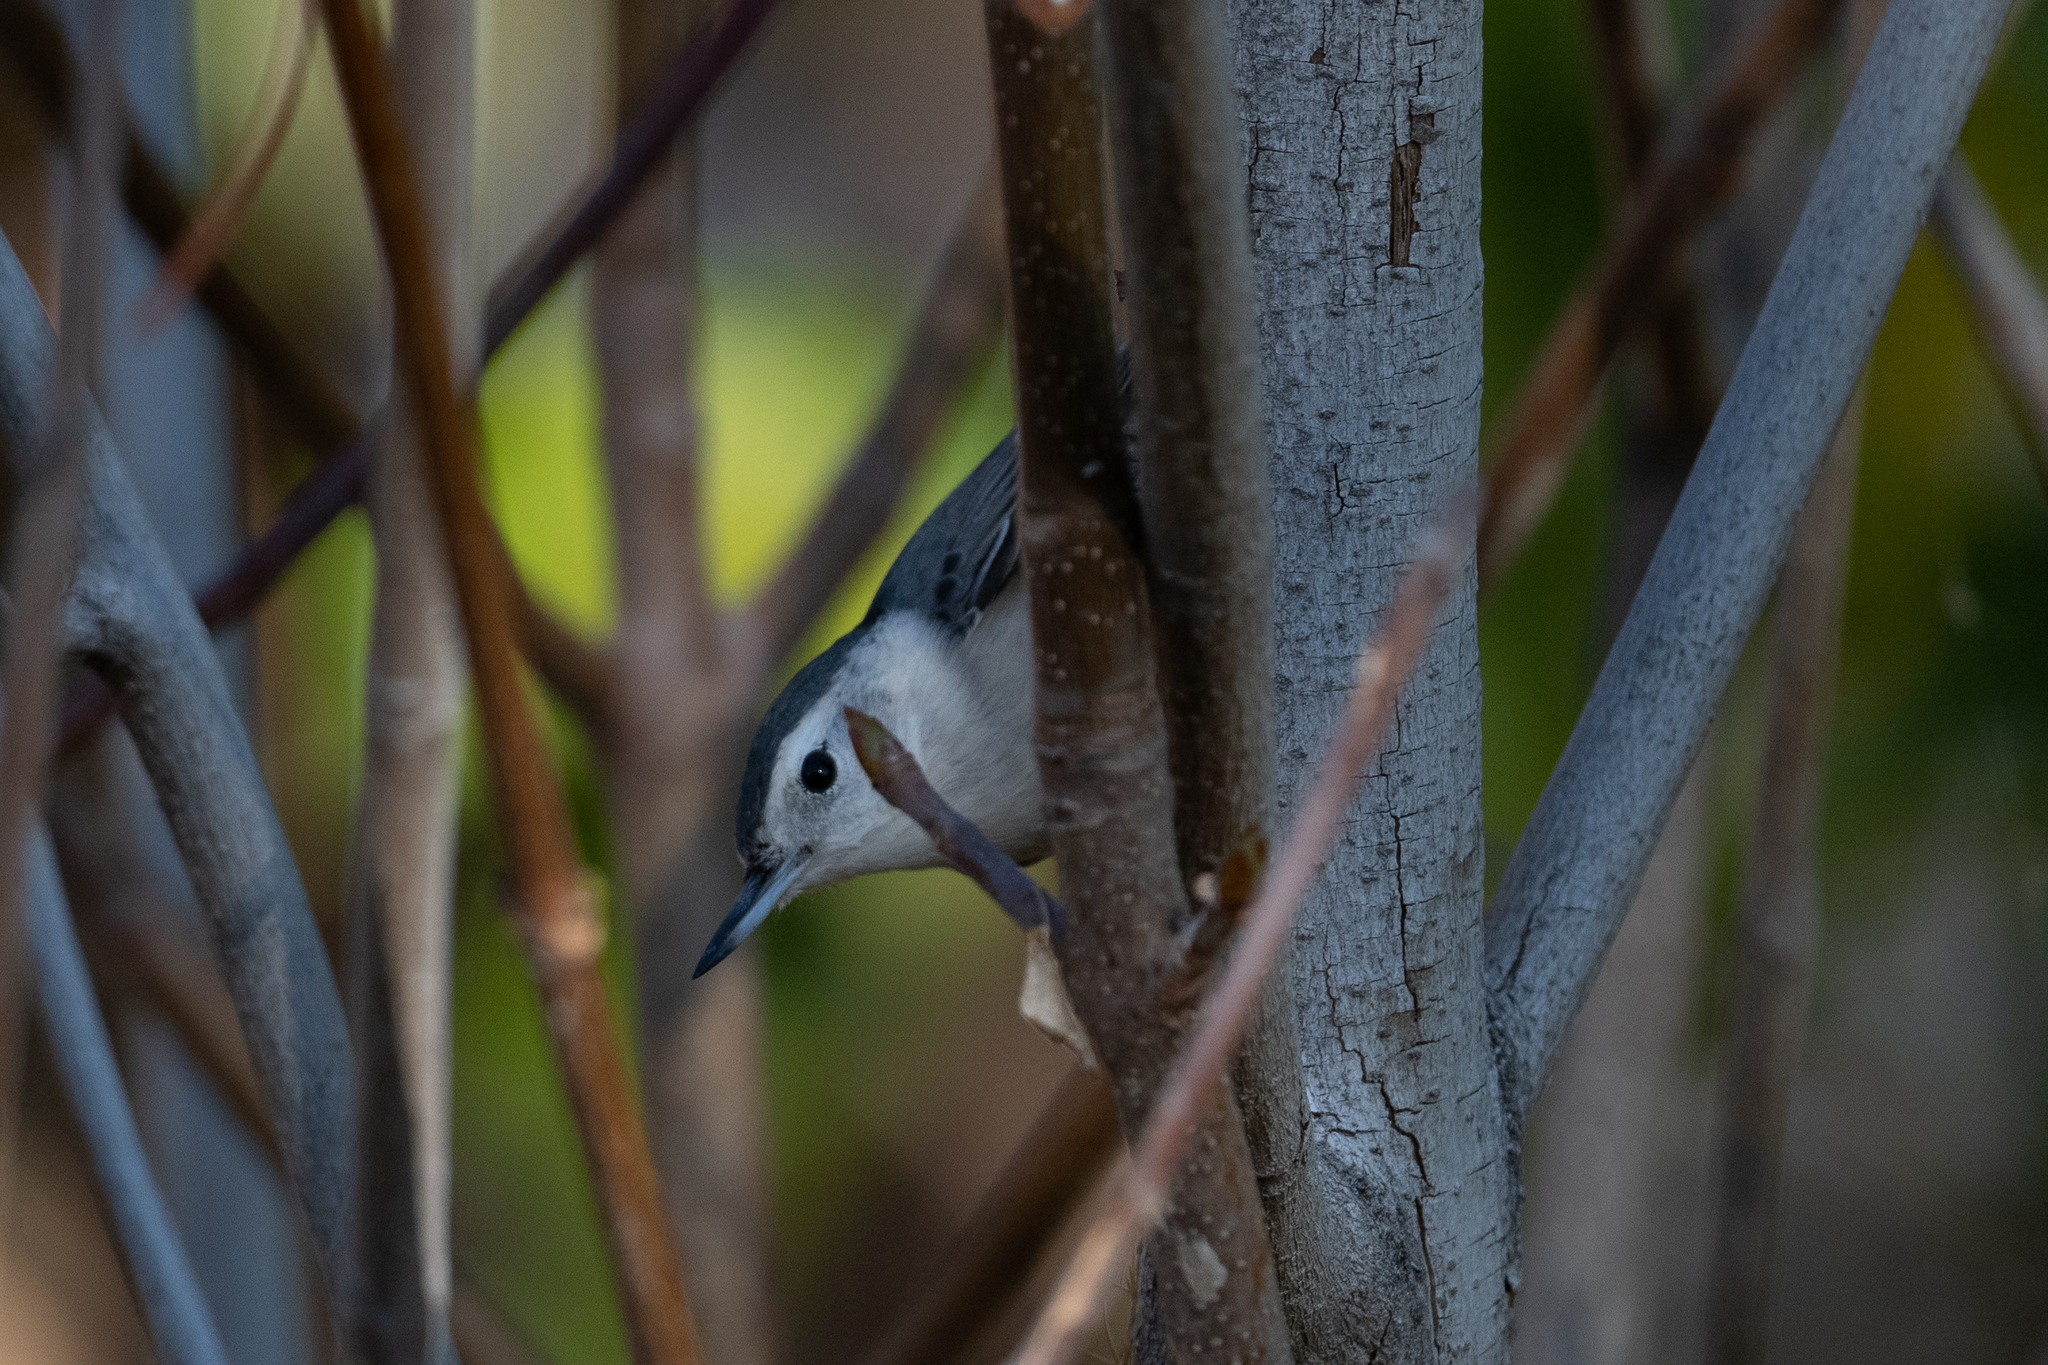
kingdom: Animalia
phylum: Chordata
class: Aves
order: Passeriformes
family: Sittidae
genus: Sitta
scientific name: Sitta carolinensis
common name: White-breasted nuthatch
